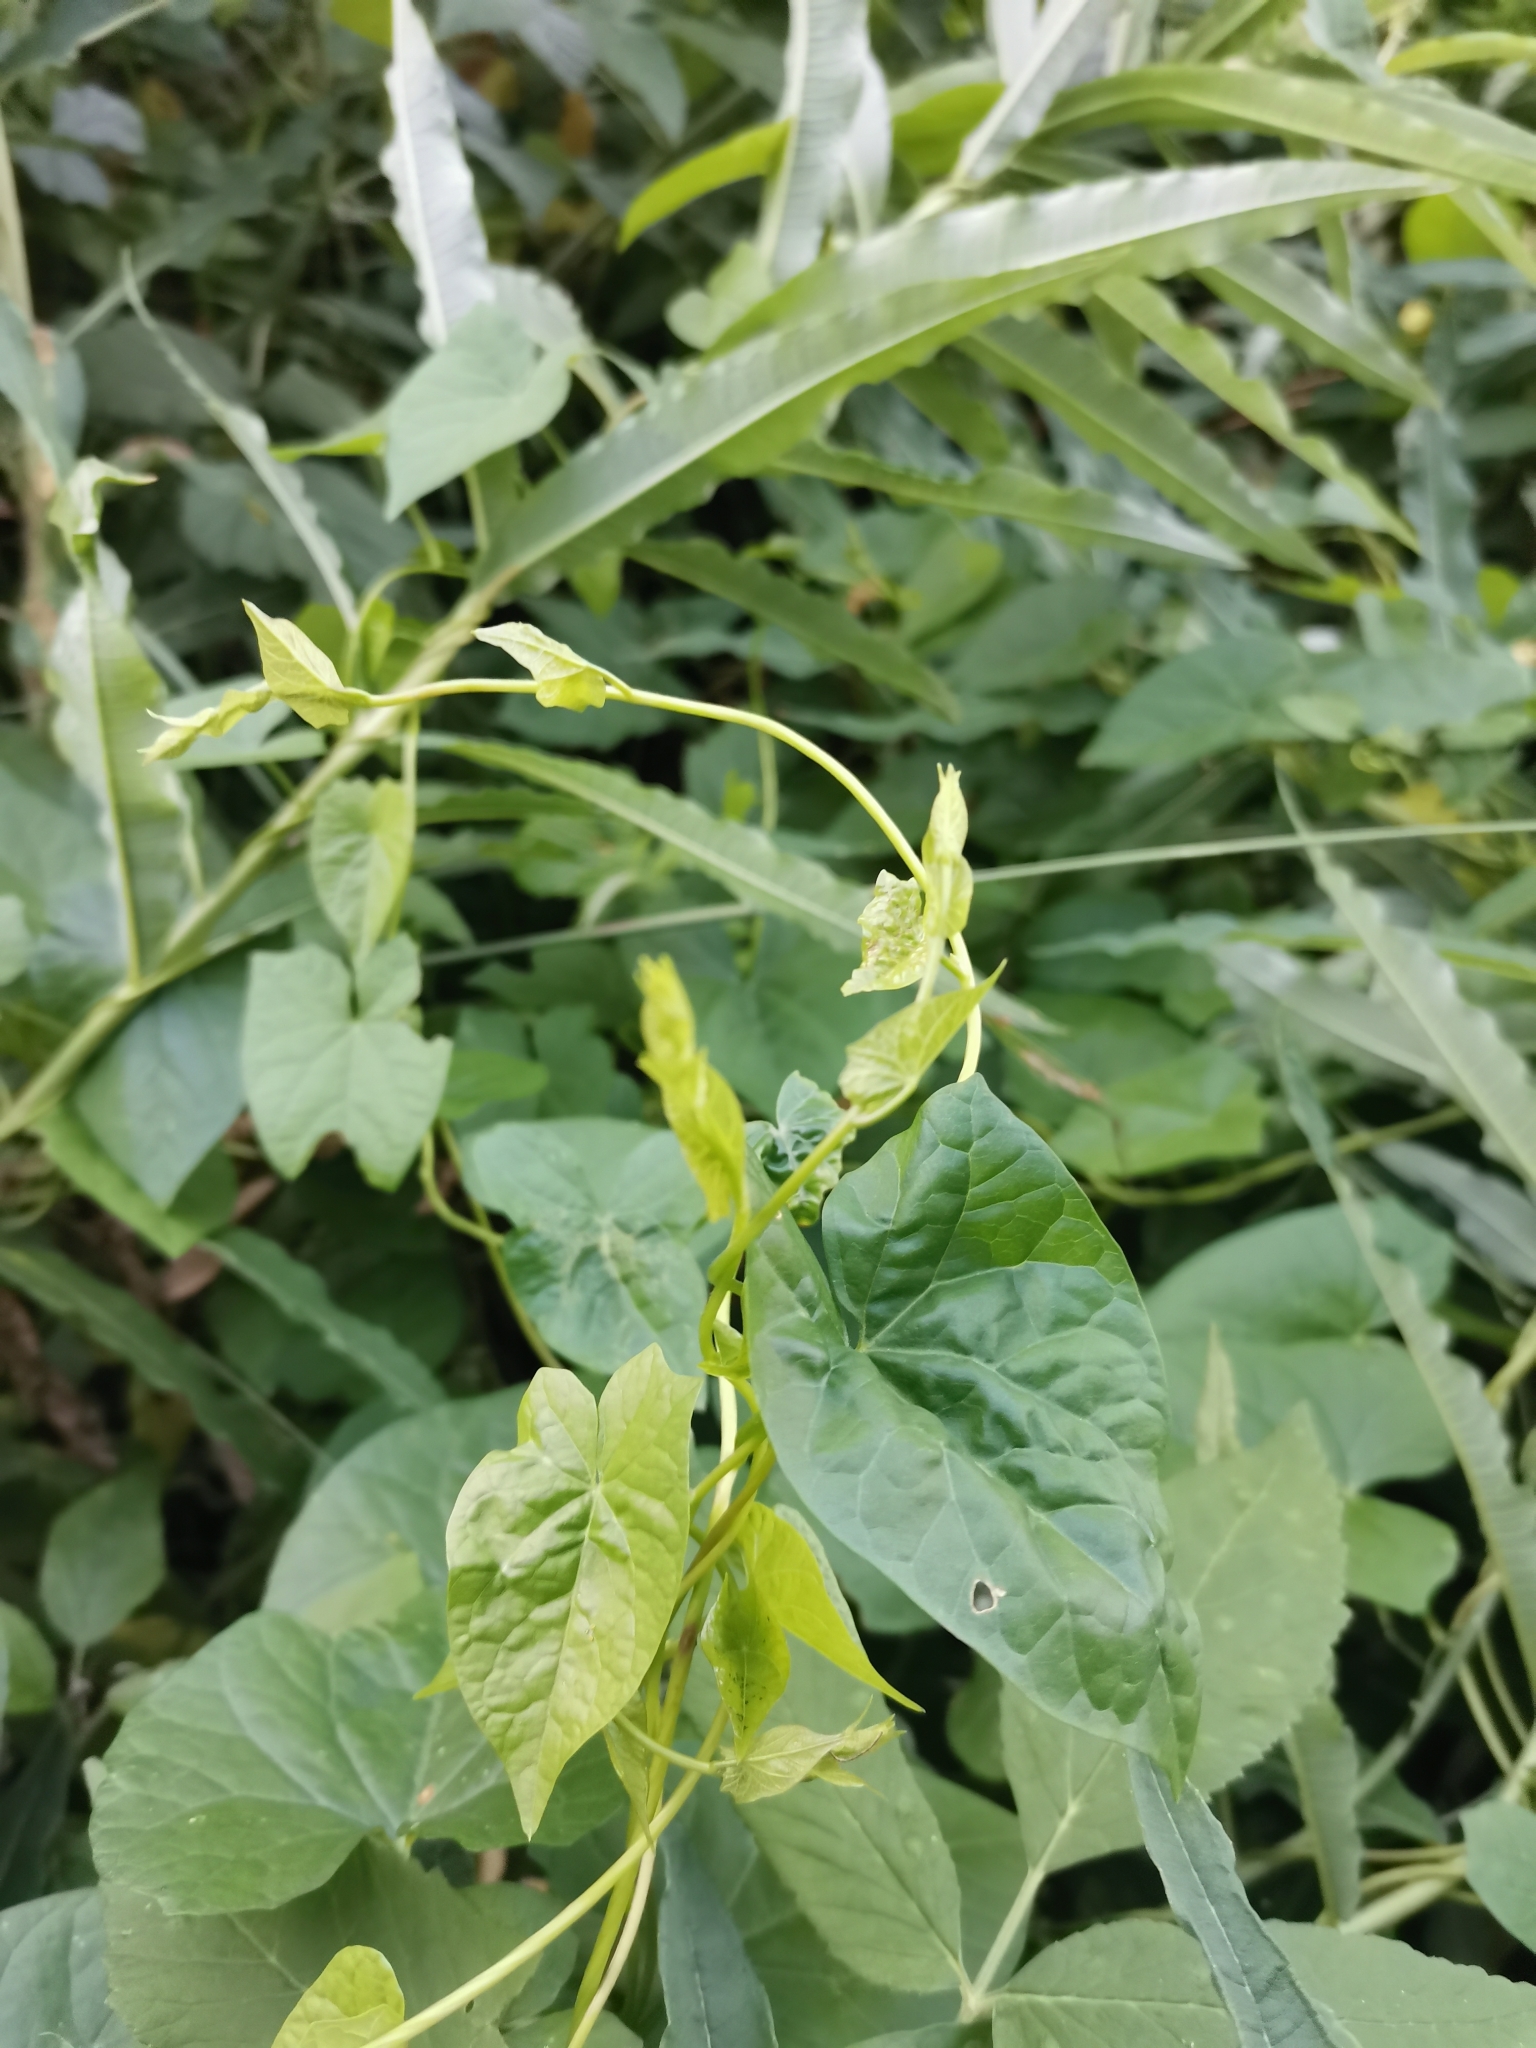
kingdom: Plantae
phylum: Tracheophyta
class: Magnoliopsida
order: Solanales
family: Convolvulaceae
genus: Calystegia
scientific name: Calystegia sepium
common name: Hedge bindweed
